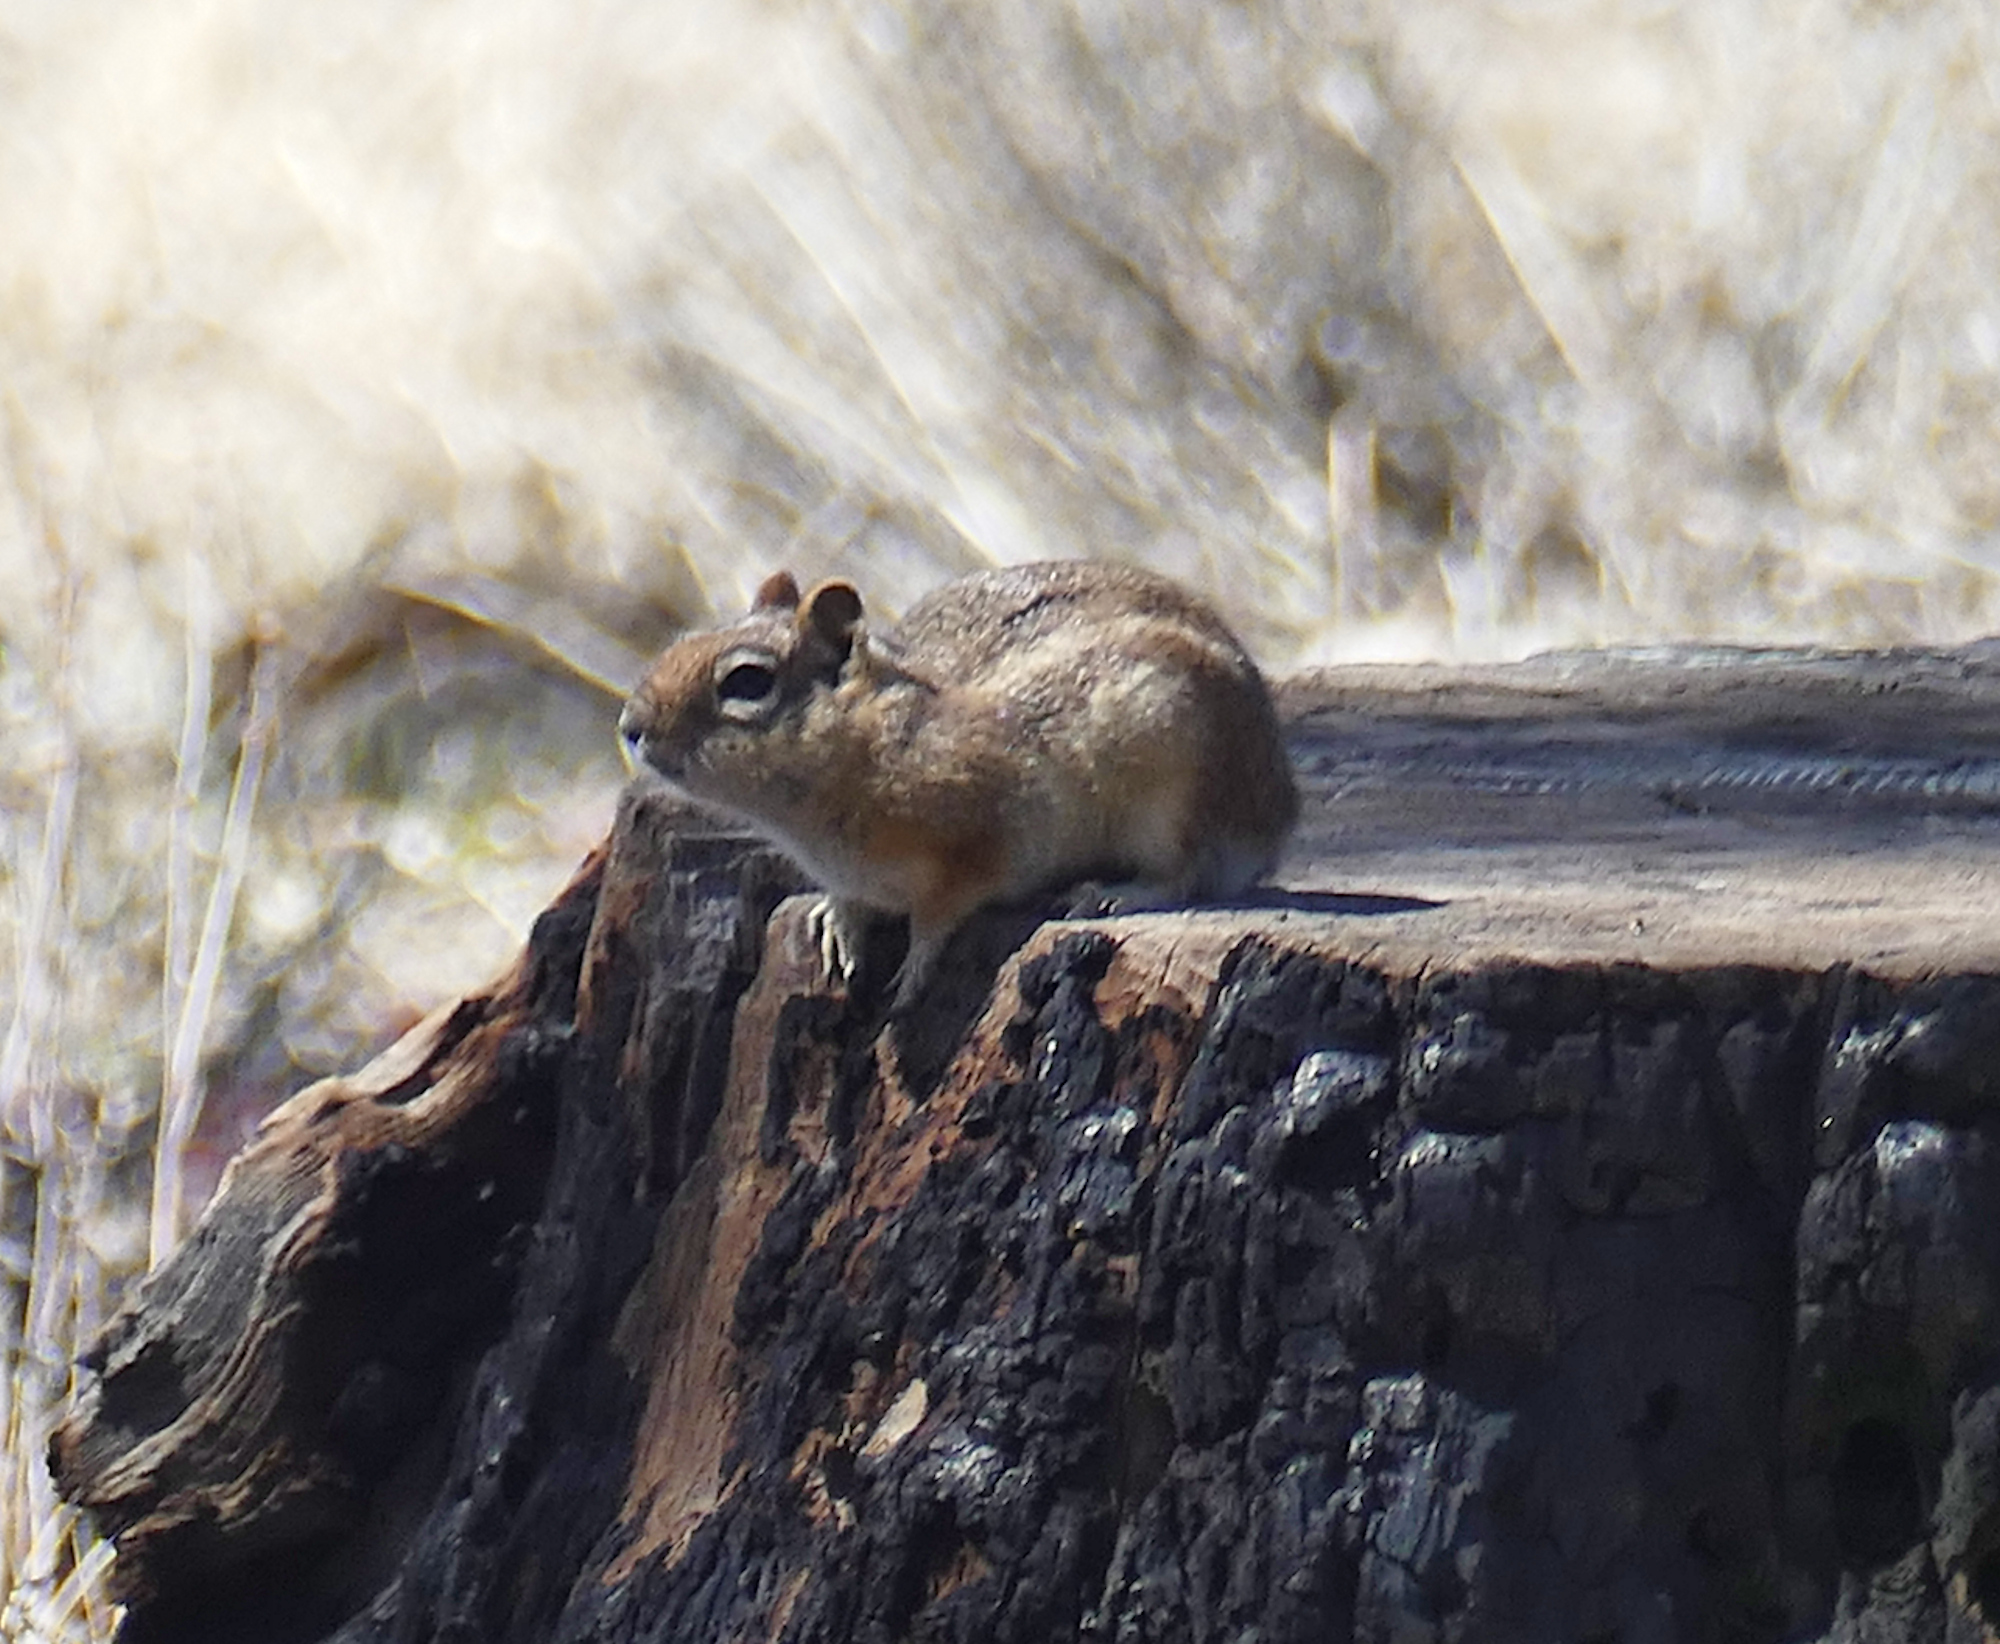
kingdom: Animalia
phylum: Chordata
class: Mammalia
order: Rodentia
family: Sciuridae
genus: Callospermophilus
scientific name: Callospermophilus lateralis
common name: Golden-mantled ground squirrel
